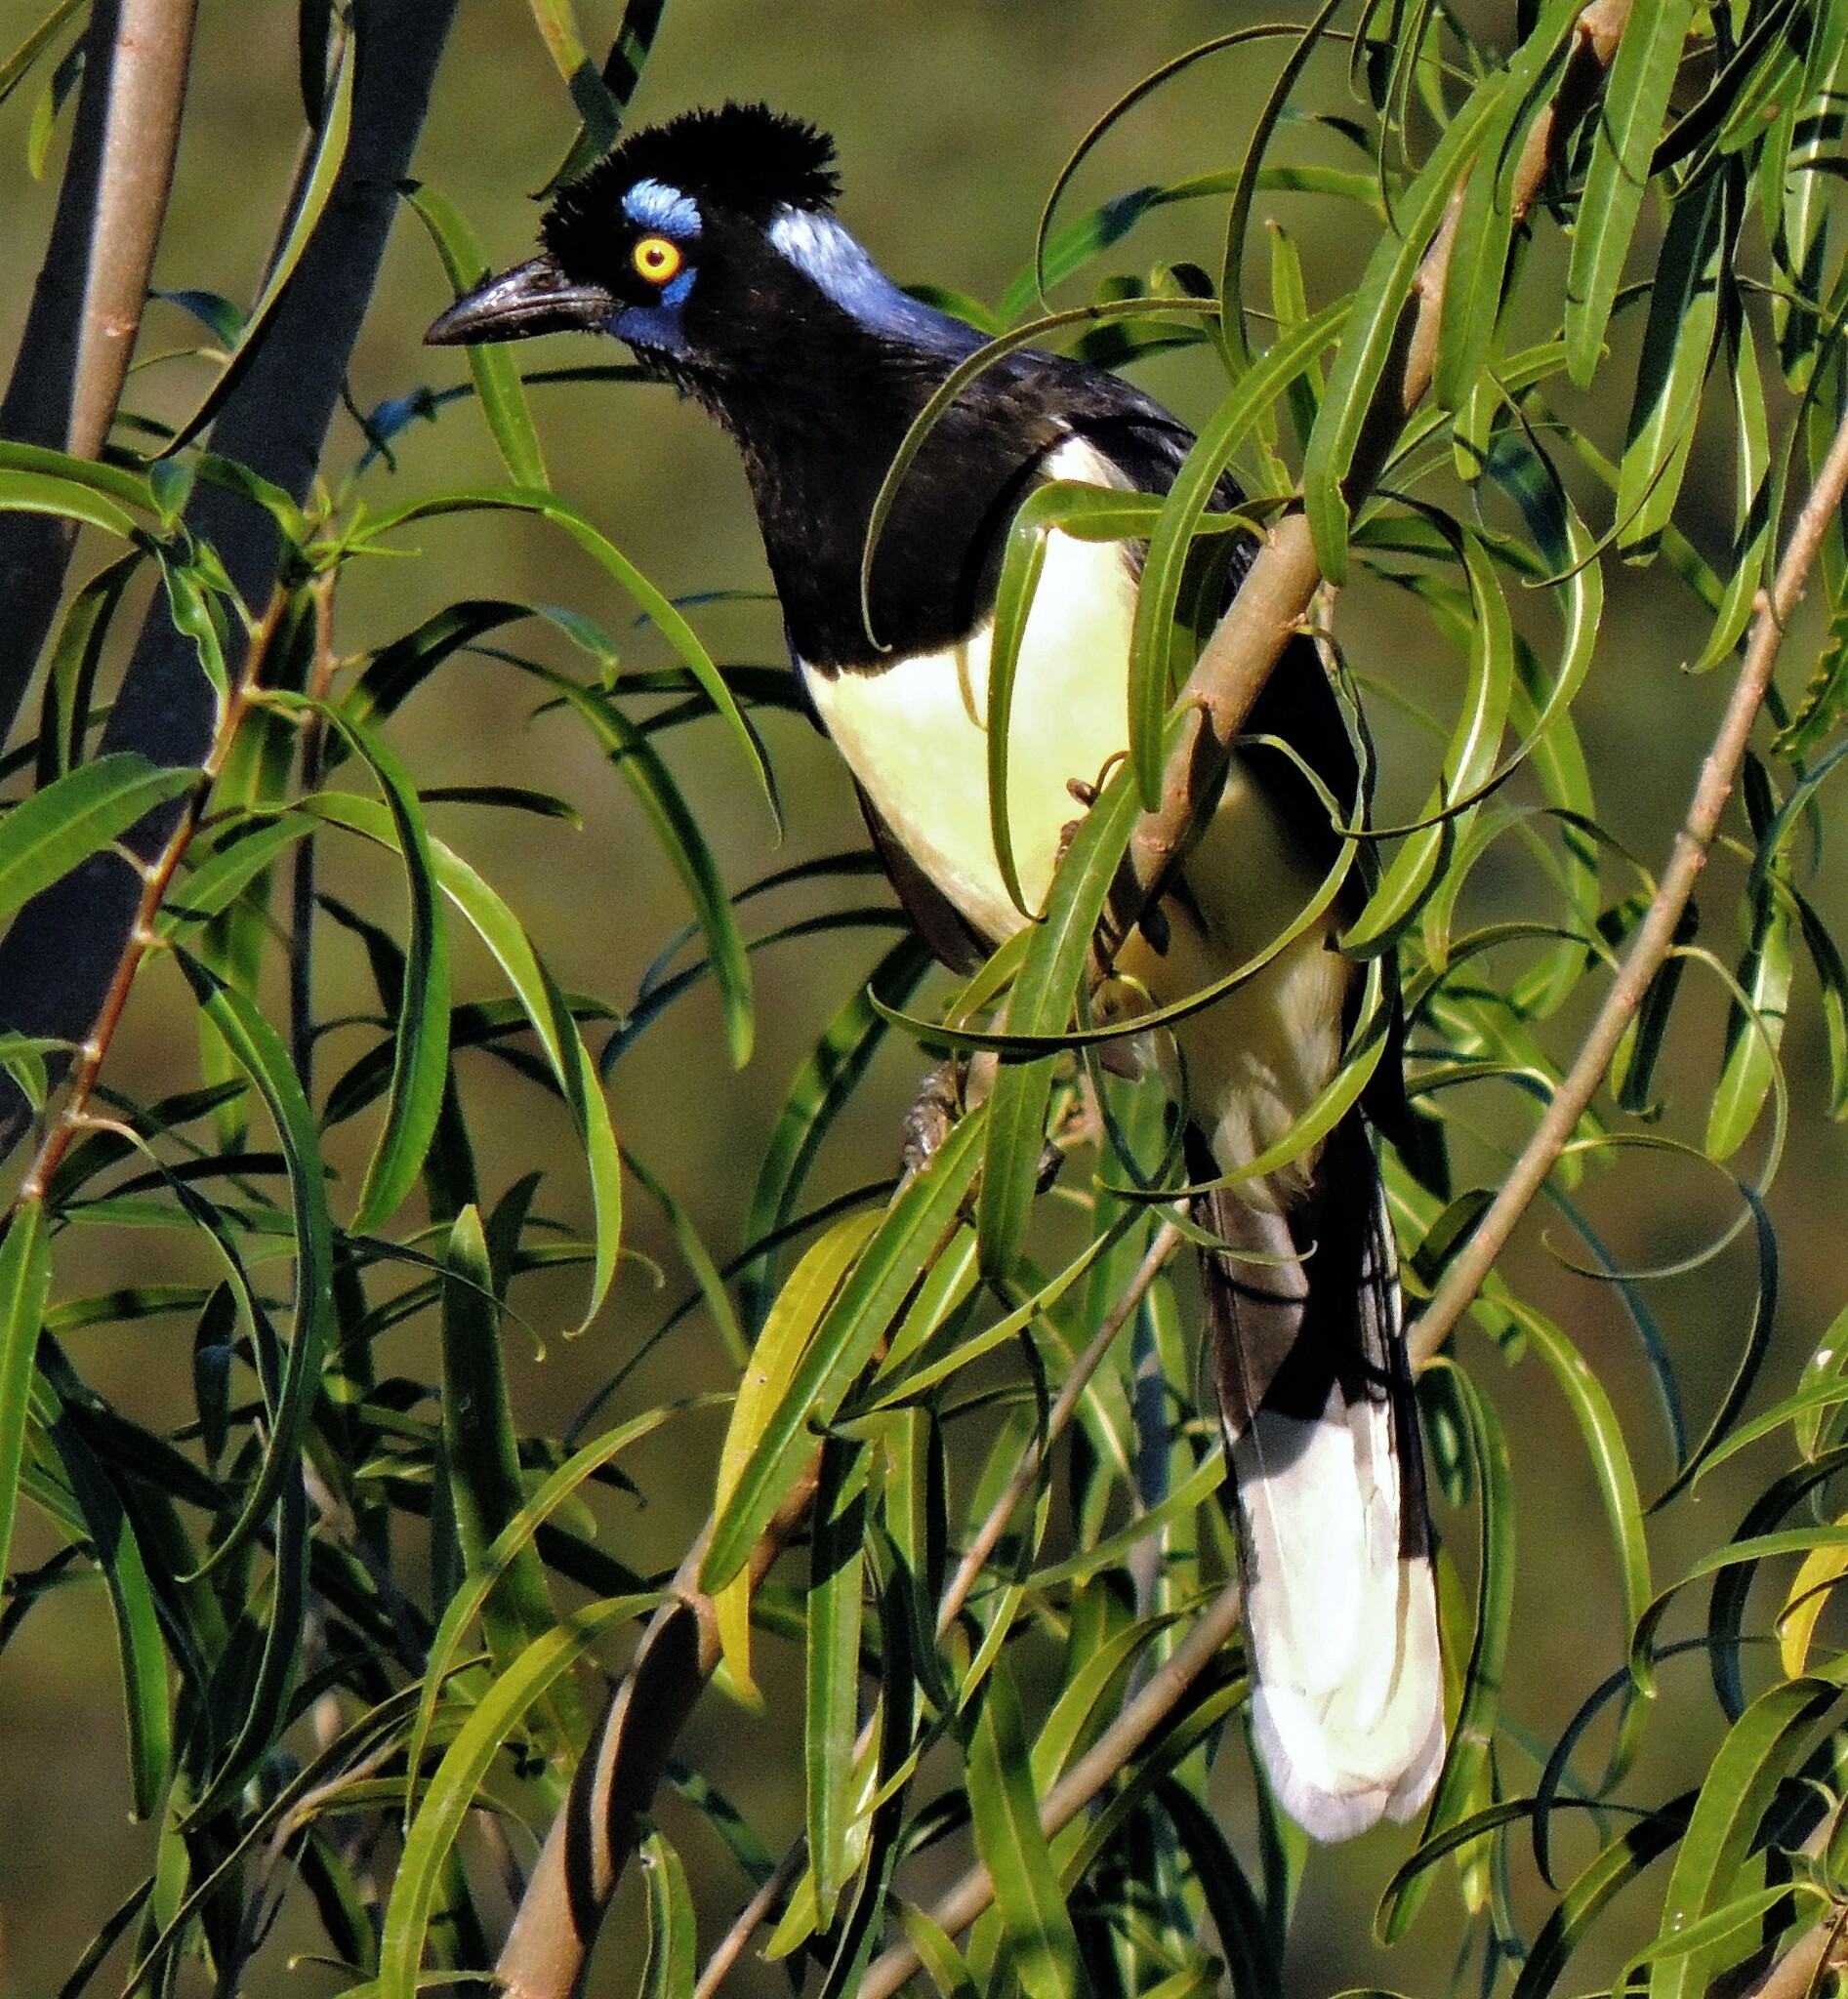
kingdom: Animalia
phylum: Chordata
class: Aves
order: Passeriformes
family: Corvidae
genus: Cyanocorax
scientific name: Cyanocorax chrysops
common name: Plush-crested jay
